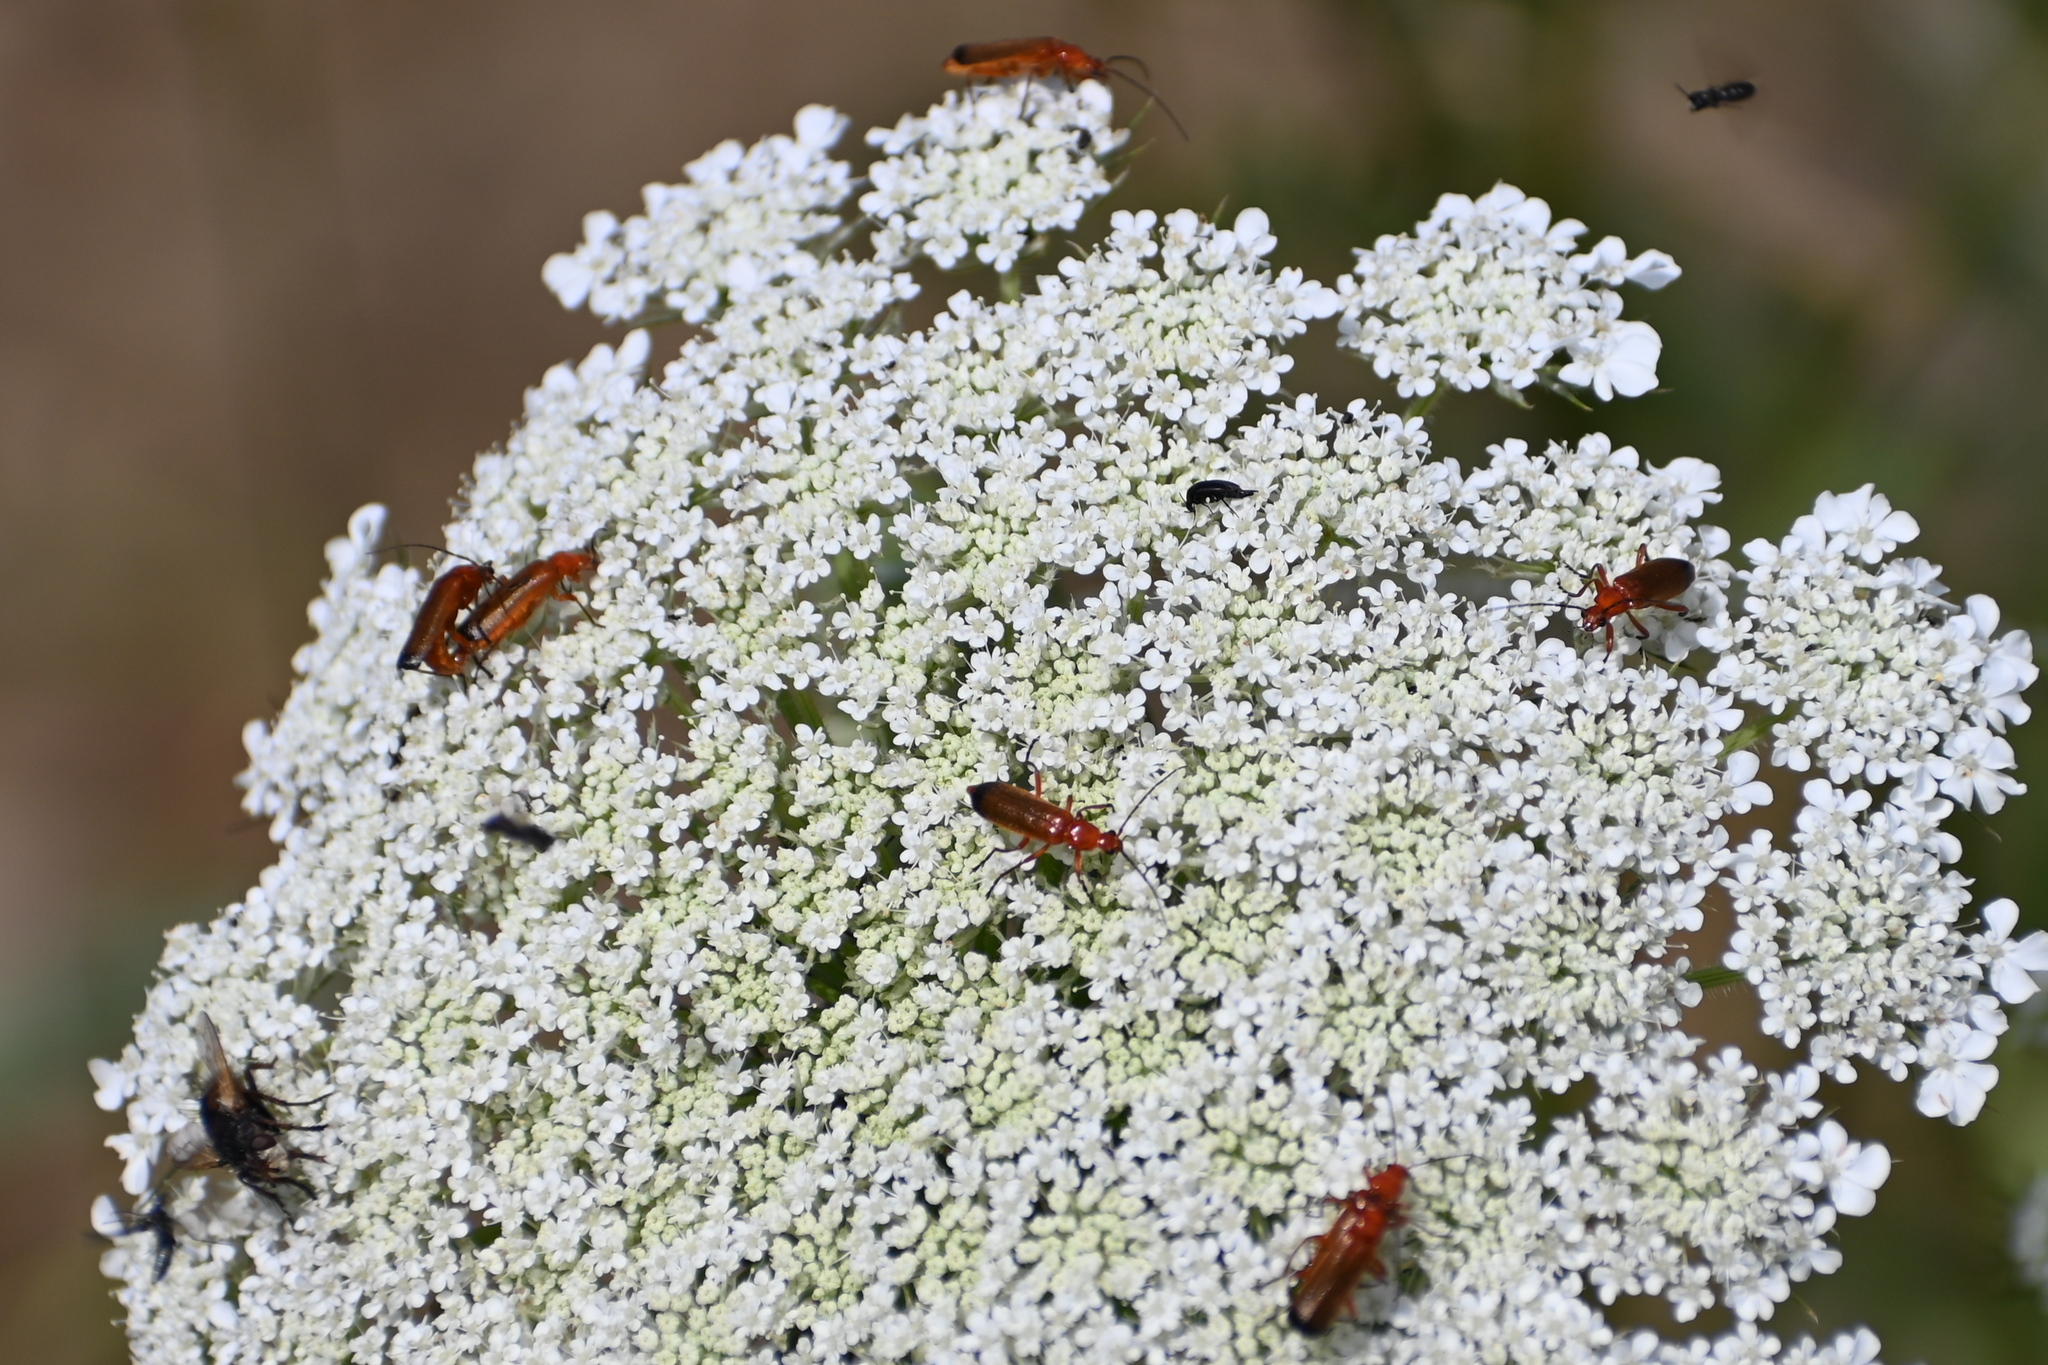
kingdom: Animalia
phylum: Arthropoda
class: Insecta
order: Coleoptera
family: Cantharidae
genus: Rhagonycha
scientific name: Rhagonycha fulva
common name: Common red soldier beetle
